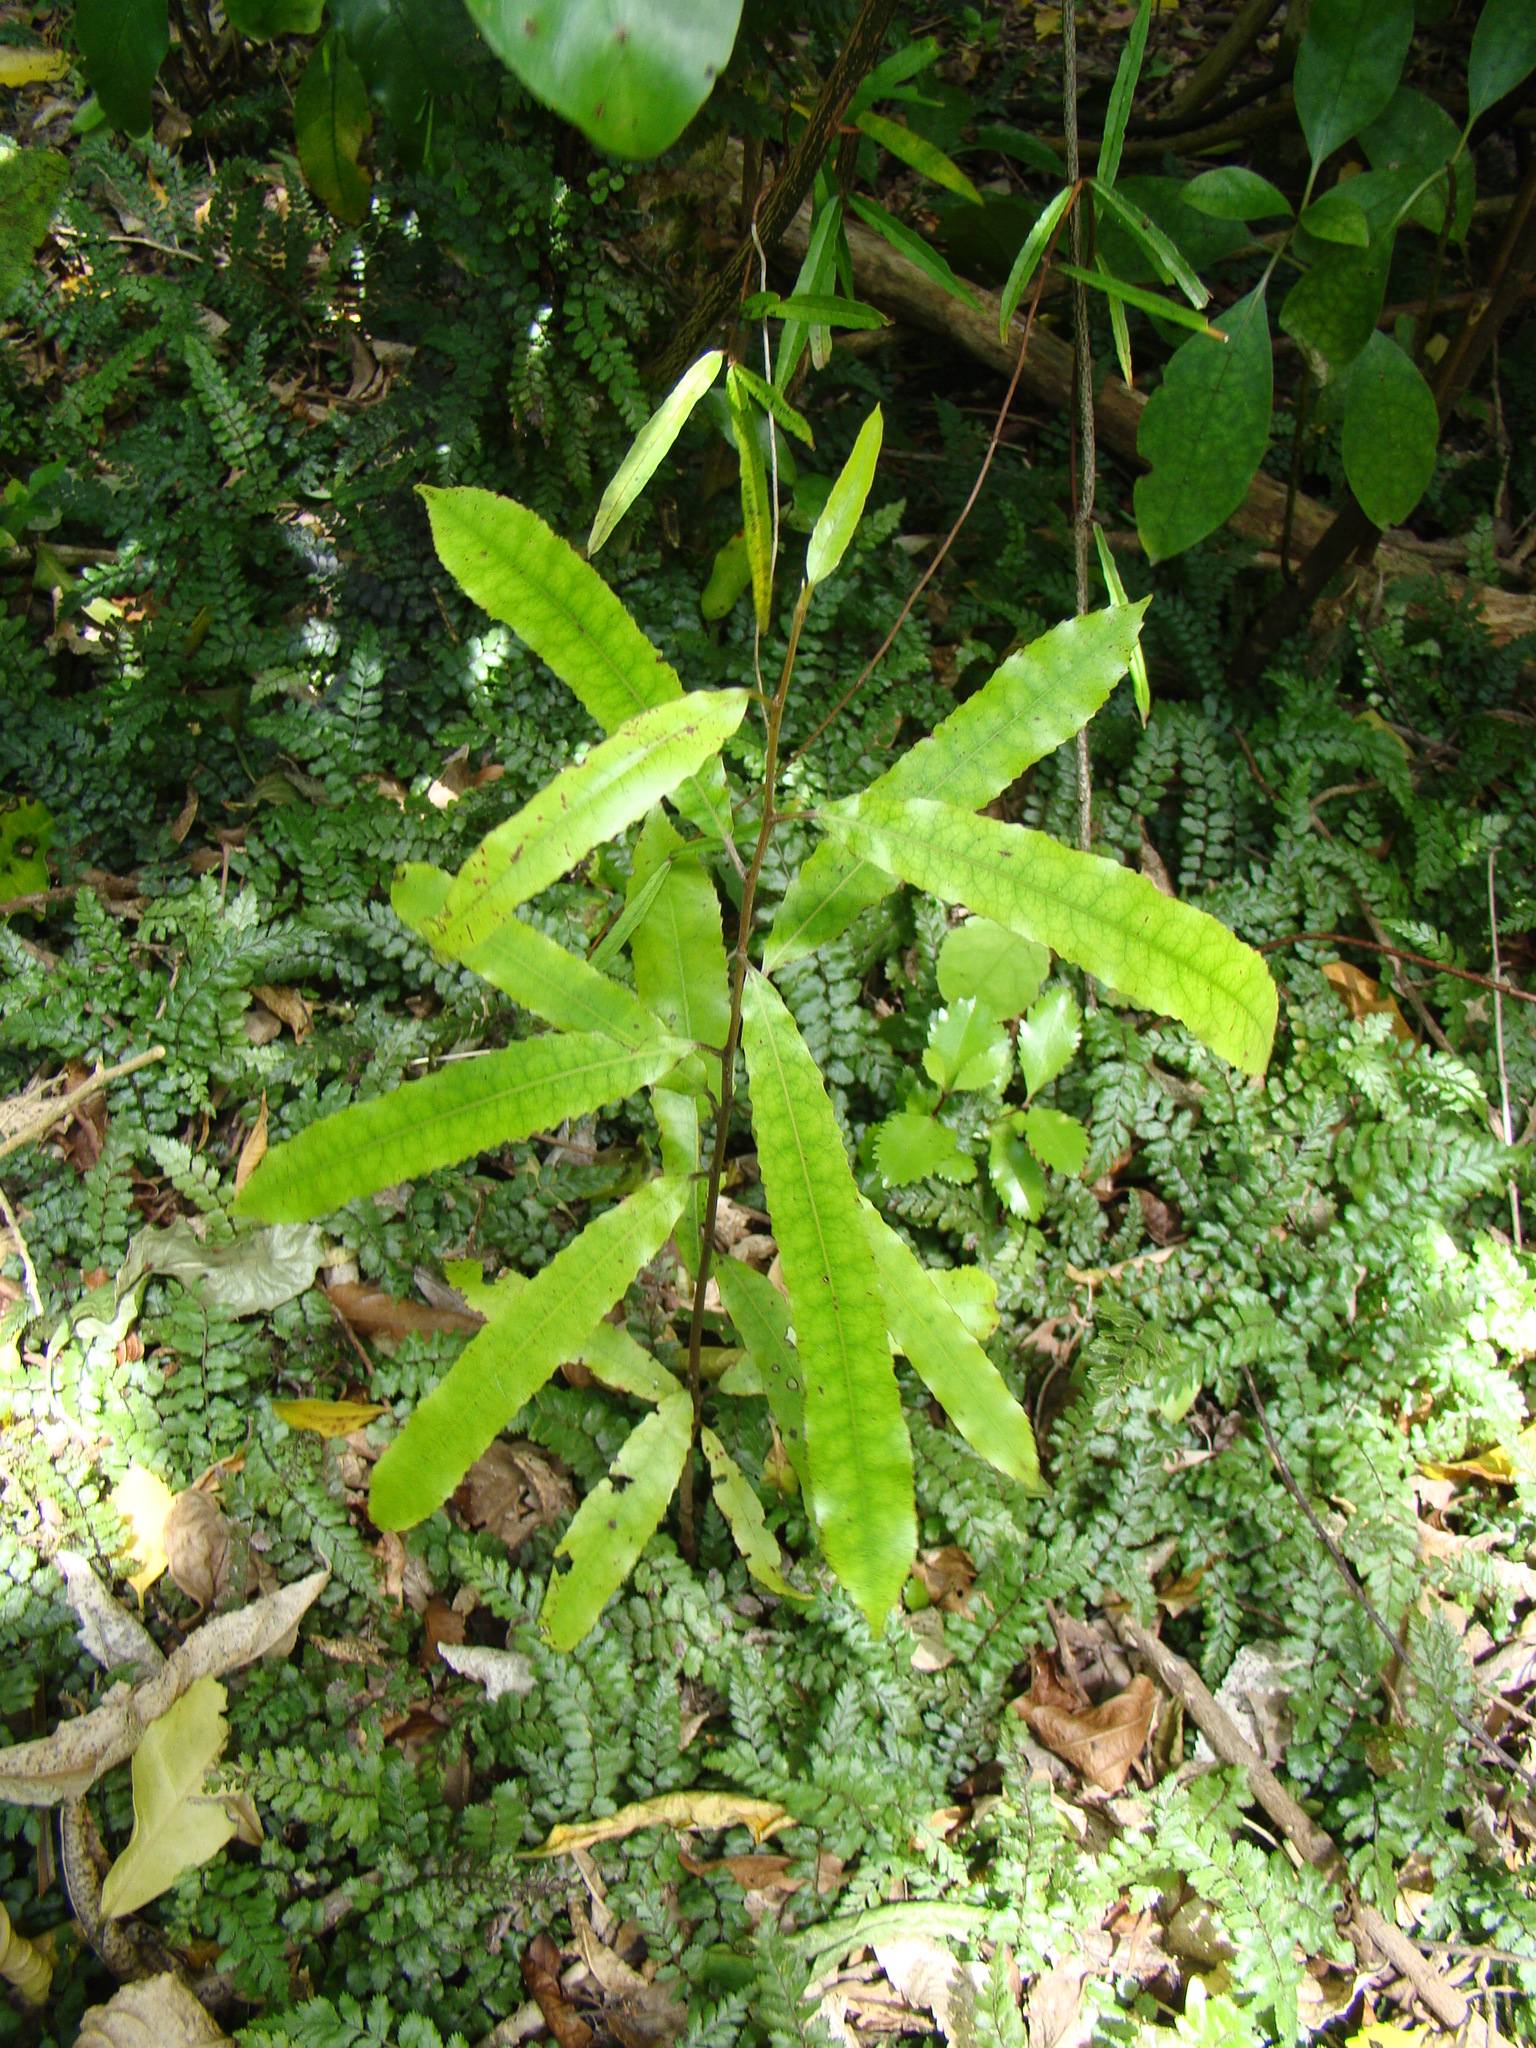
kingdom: Plantae
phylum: Tracheophyta
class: Magnoliopsida
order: Oxalidales
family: Elaeocarpaceae
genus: Elaeocarpus
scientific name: Elaeocarpus dentatus
